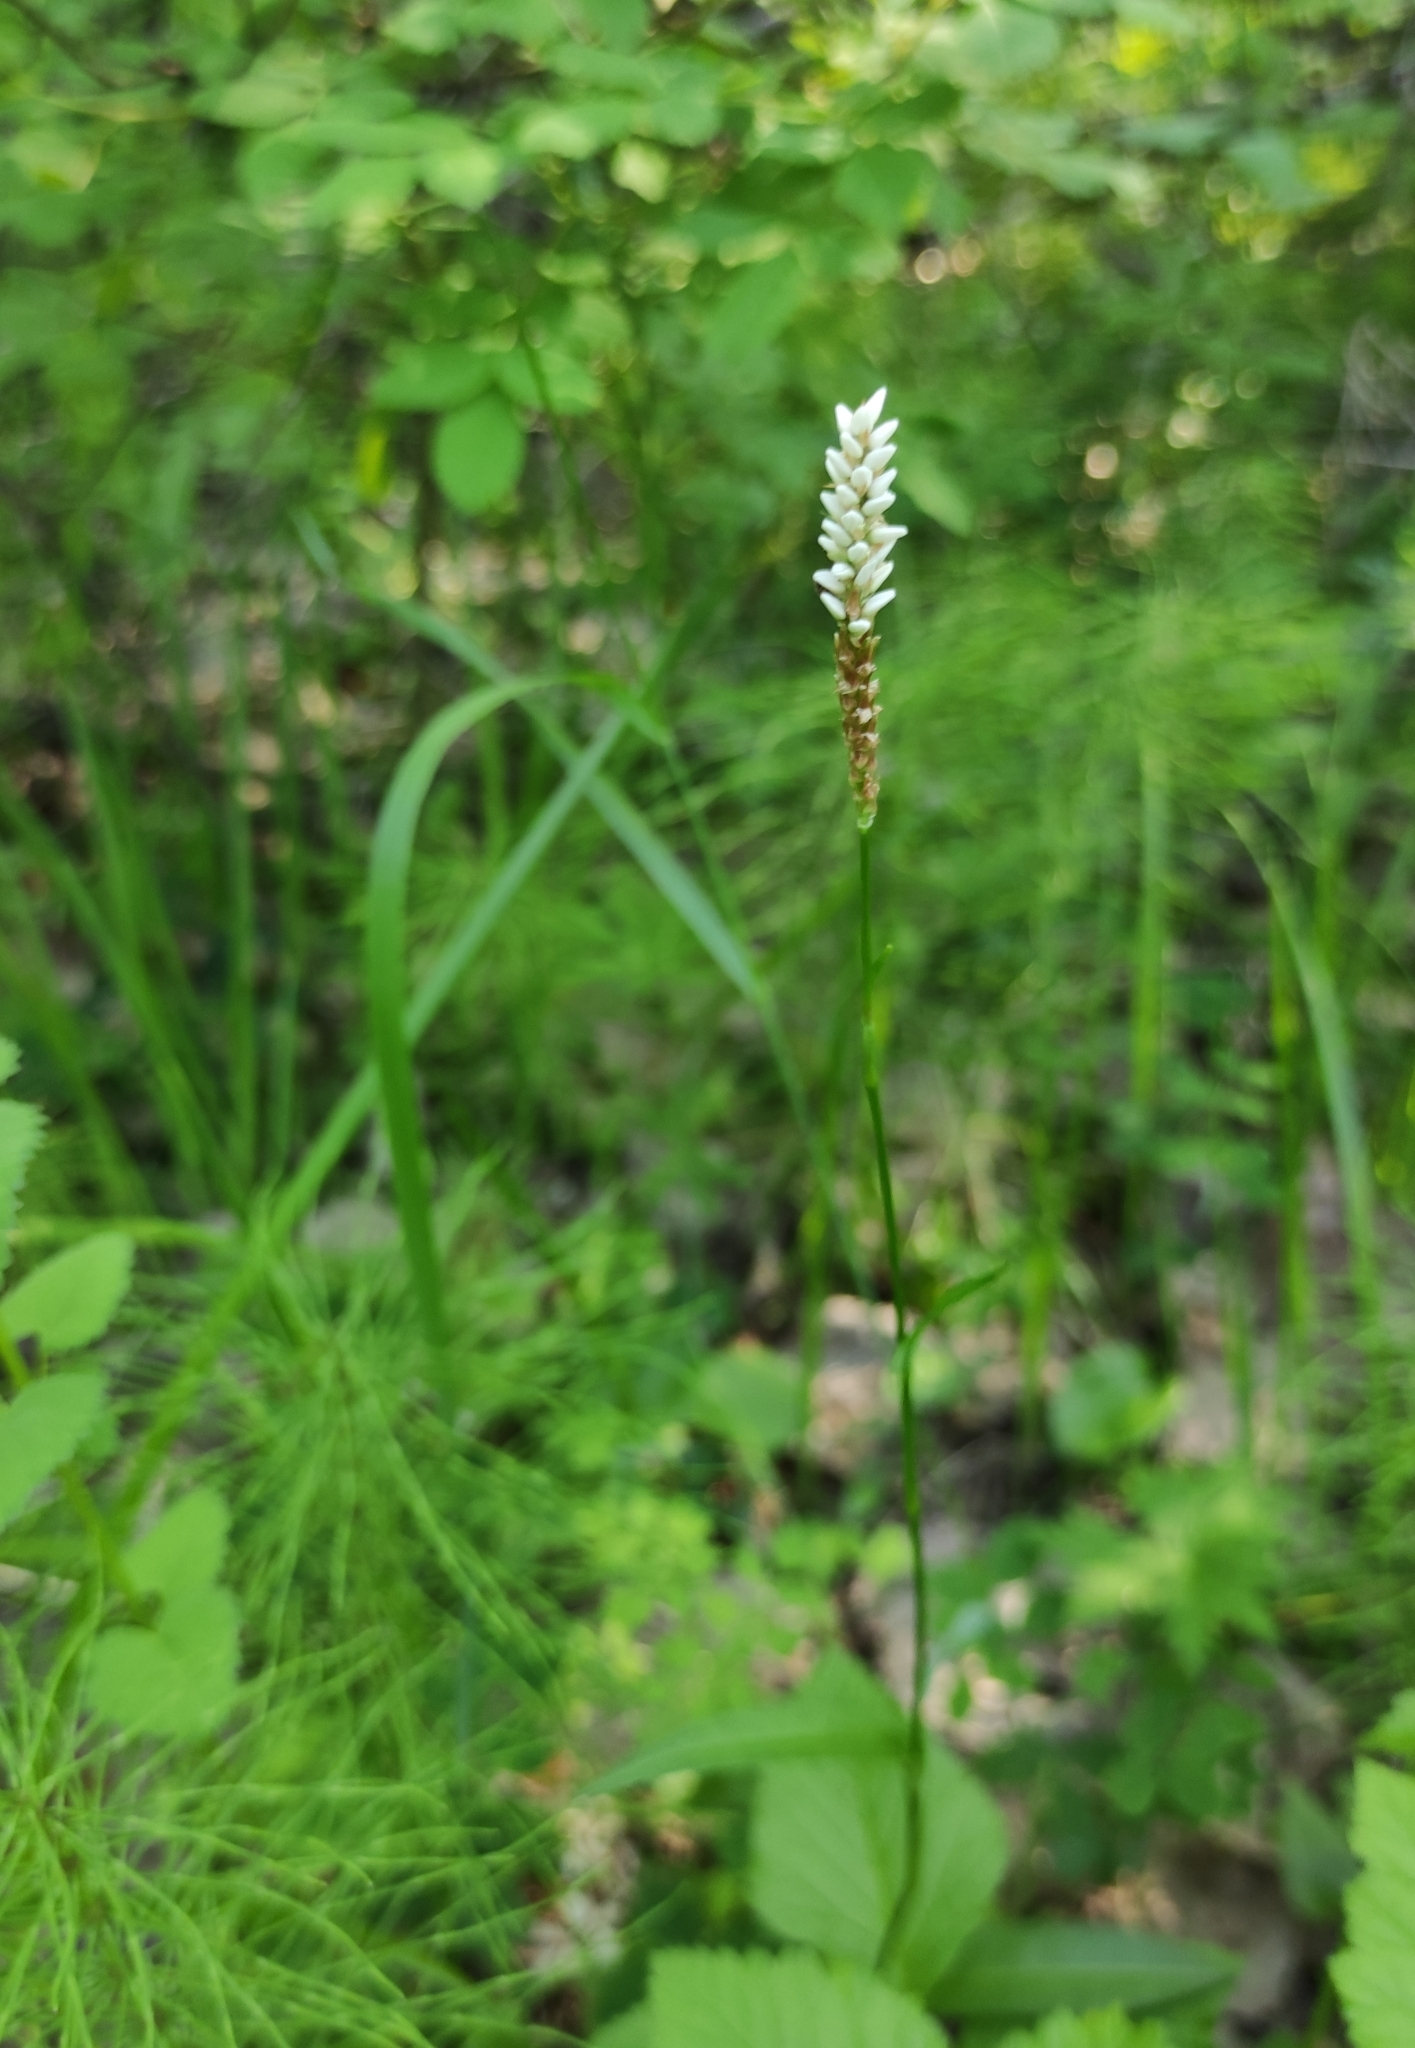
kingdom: Plantae
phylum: Tracheophyta
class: Magnoliopsida
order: Caryophyllales
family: Polygonaceae
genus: Bistorta
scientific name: Bistorta vivipara
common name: Alpine bistort
